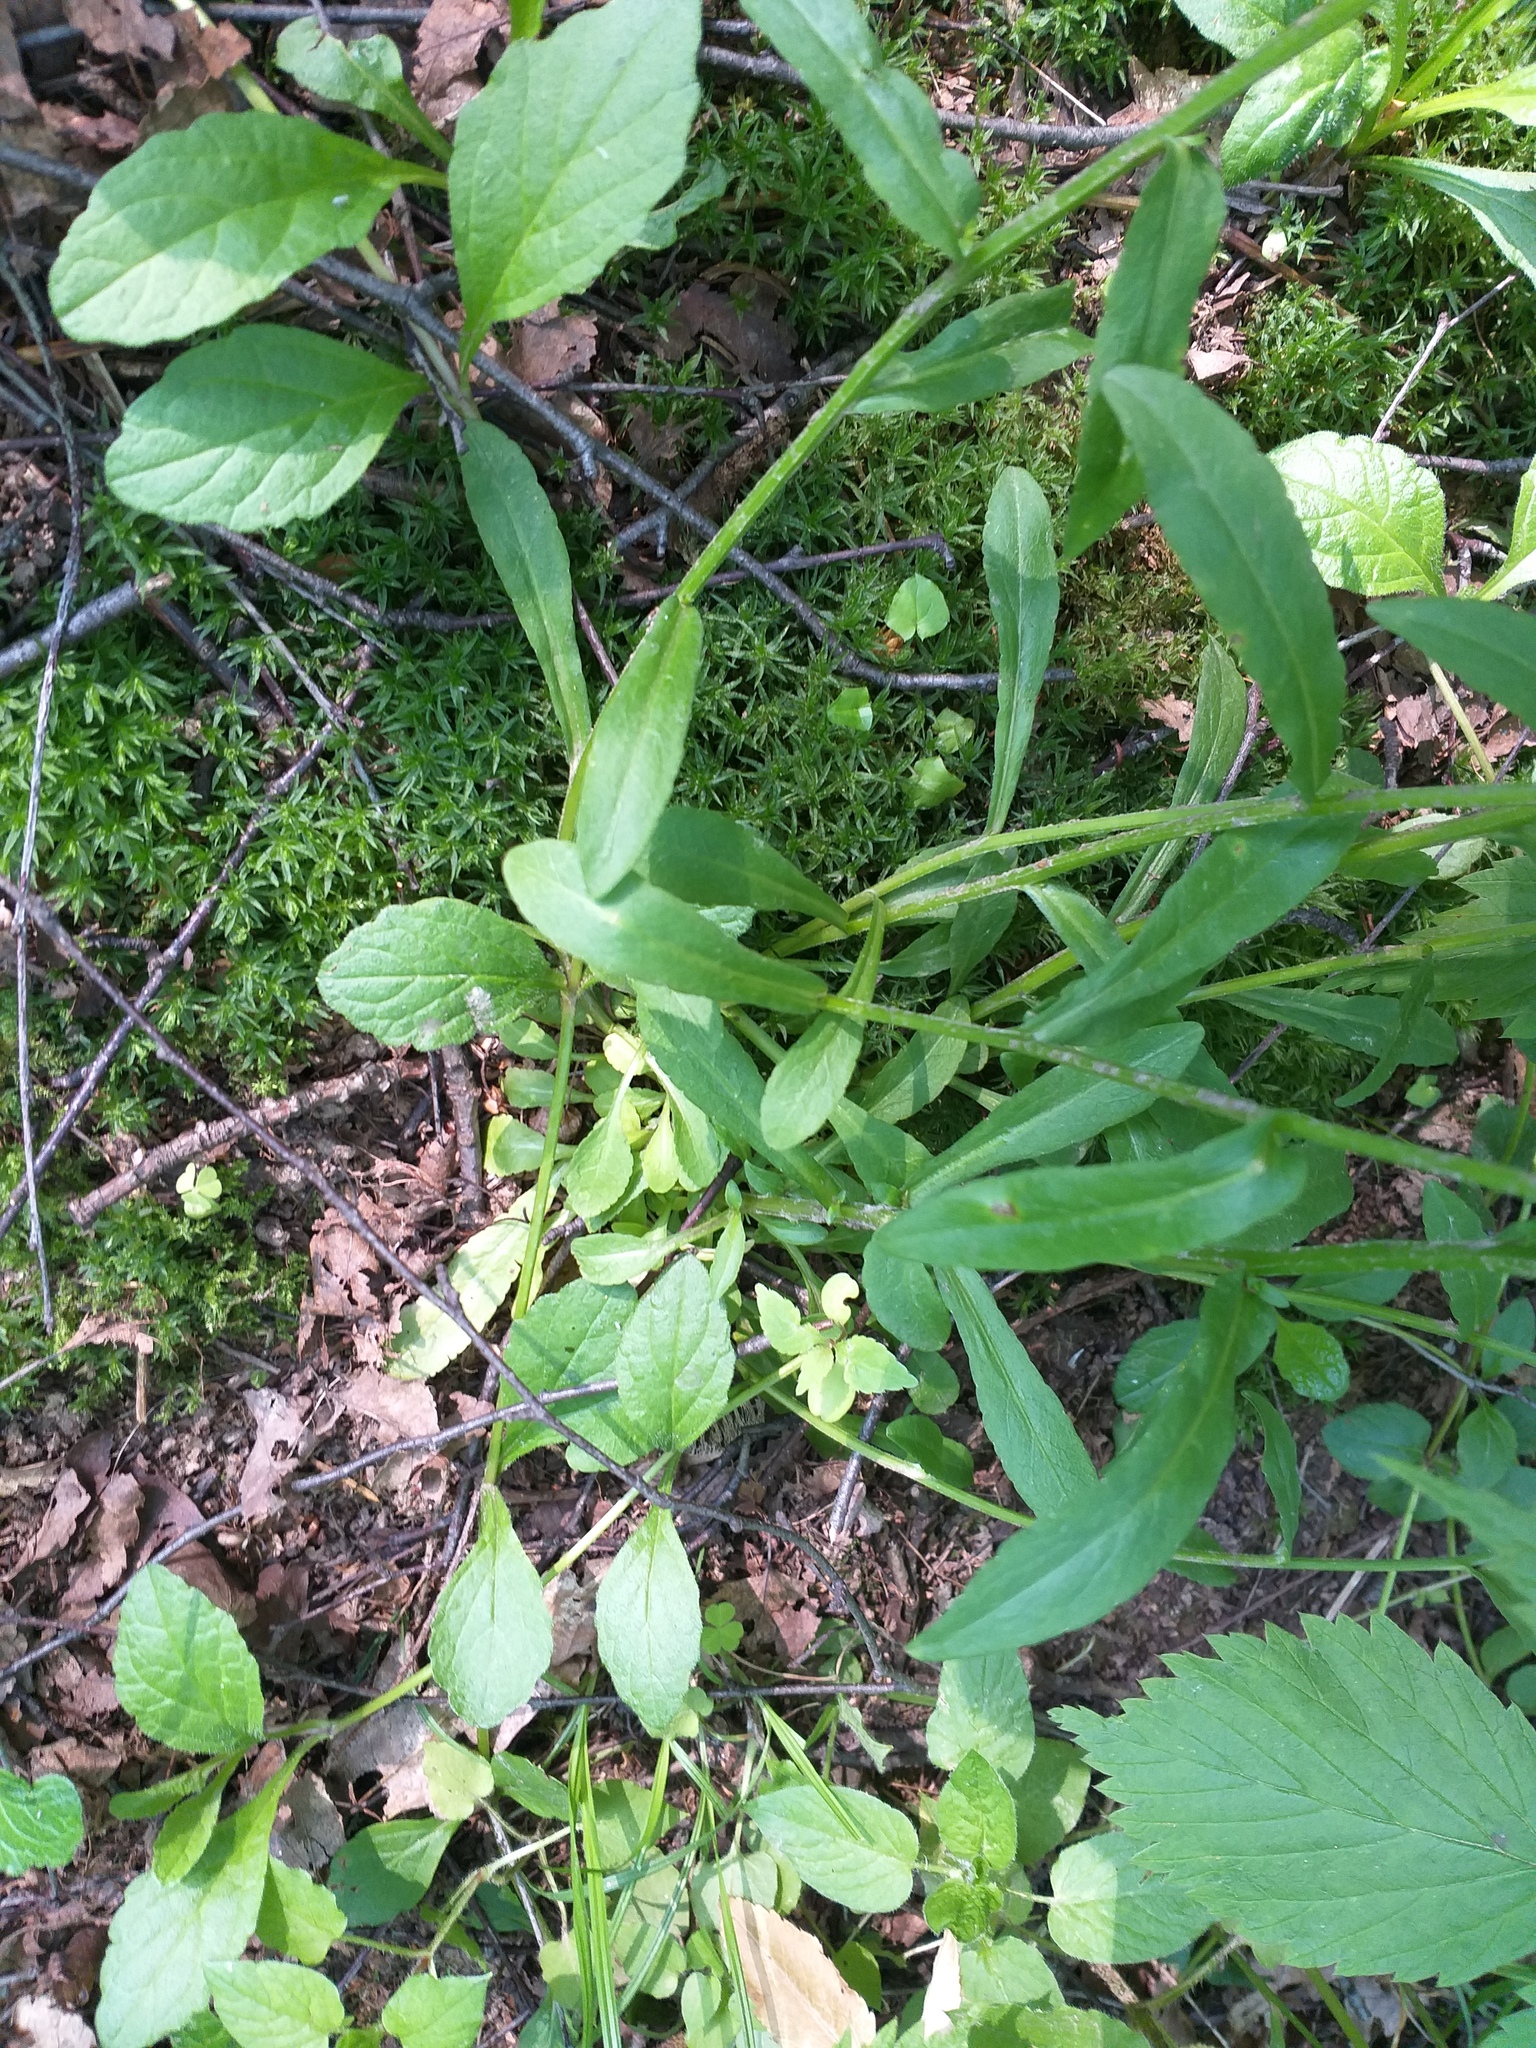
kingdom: Plantae
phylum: Tracheophyta
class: Magnoliopsida
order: Asterales
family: Campanulaceae
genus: Campanula
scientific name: Campanula patula
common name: Spreading bellflower
